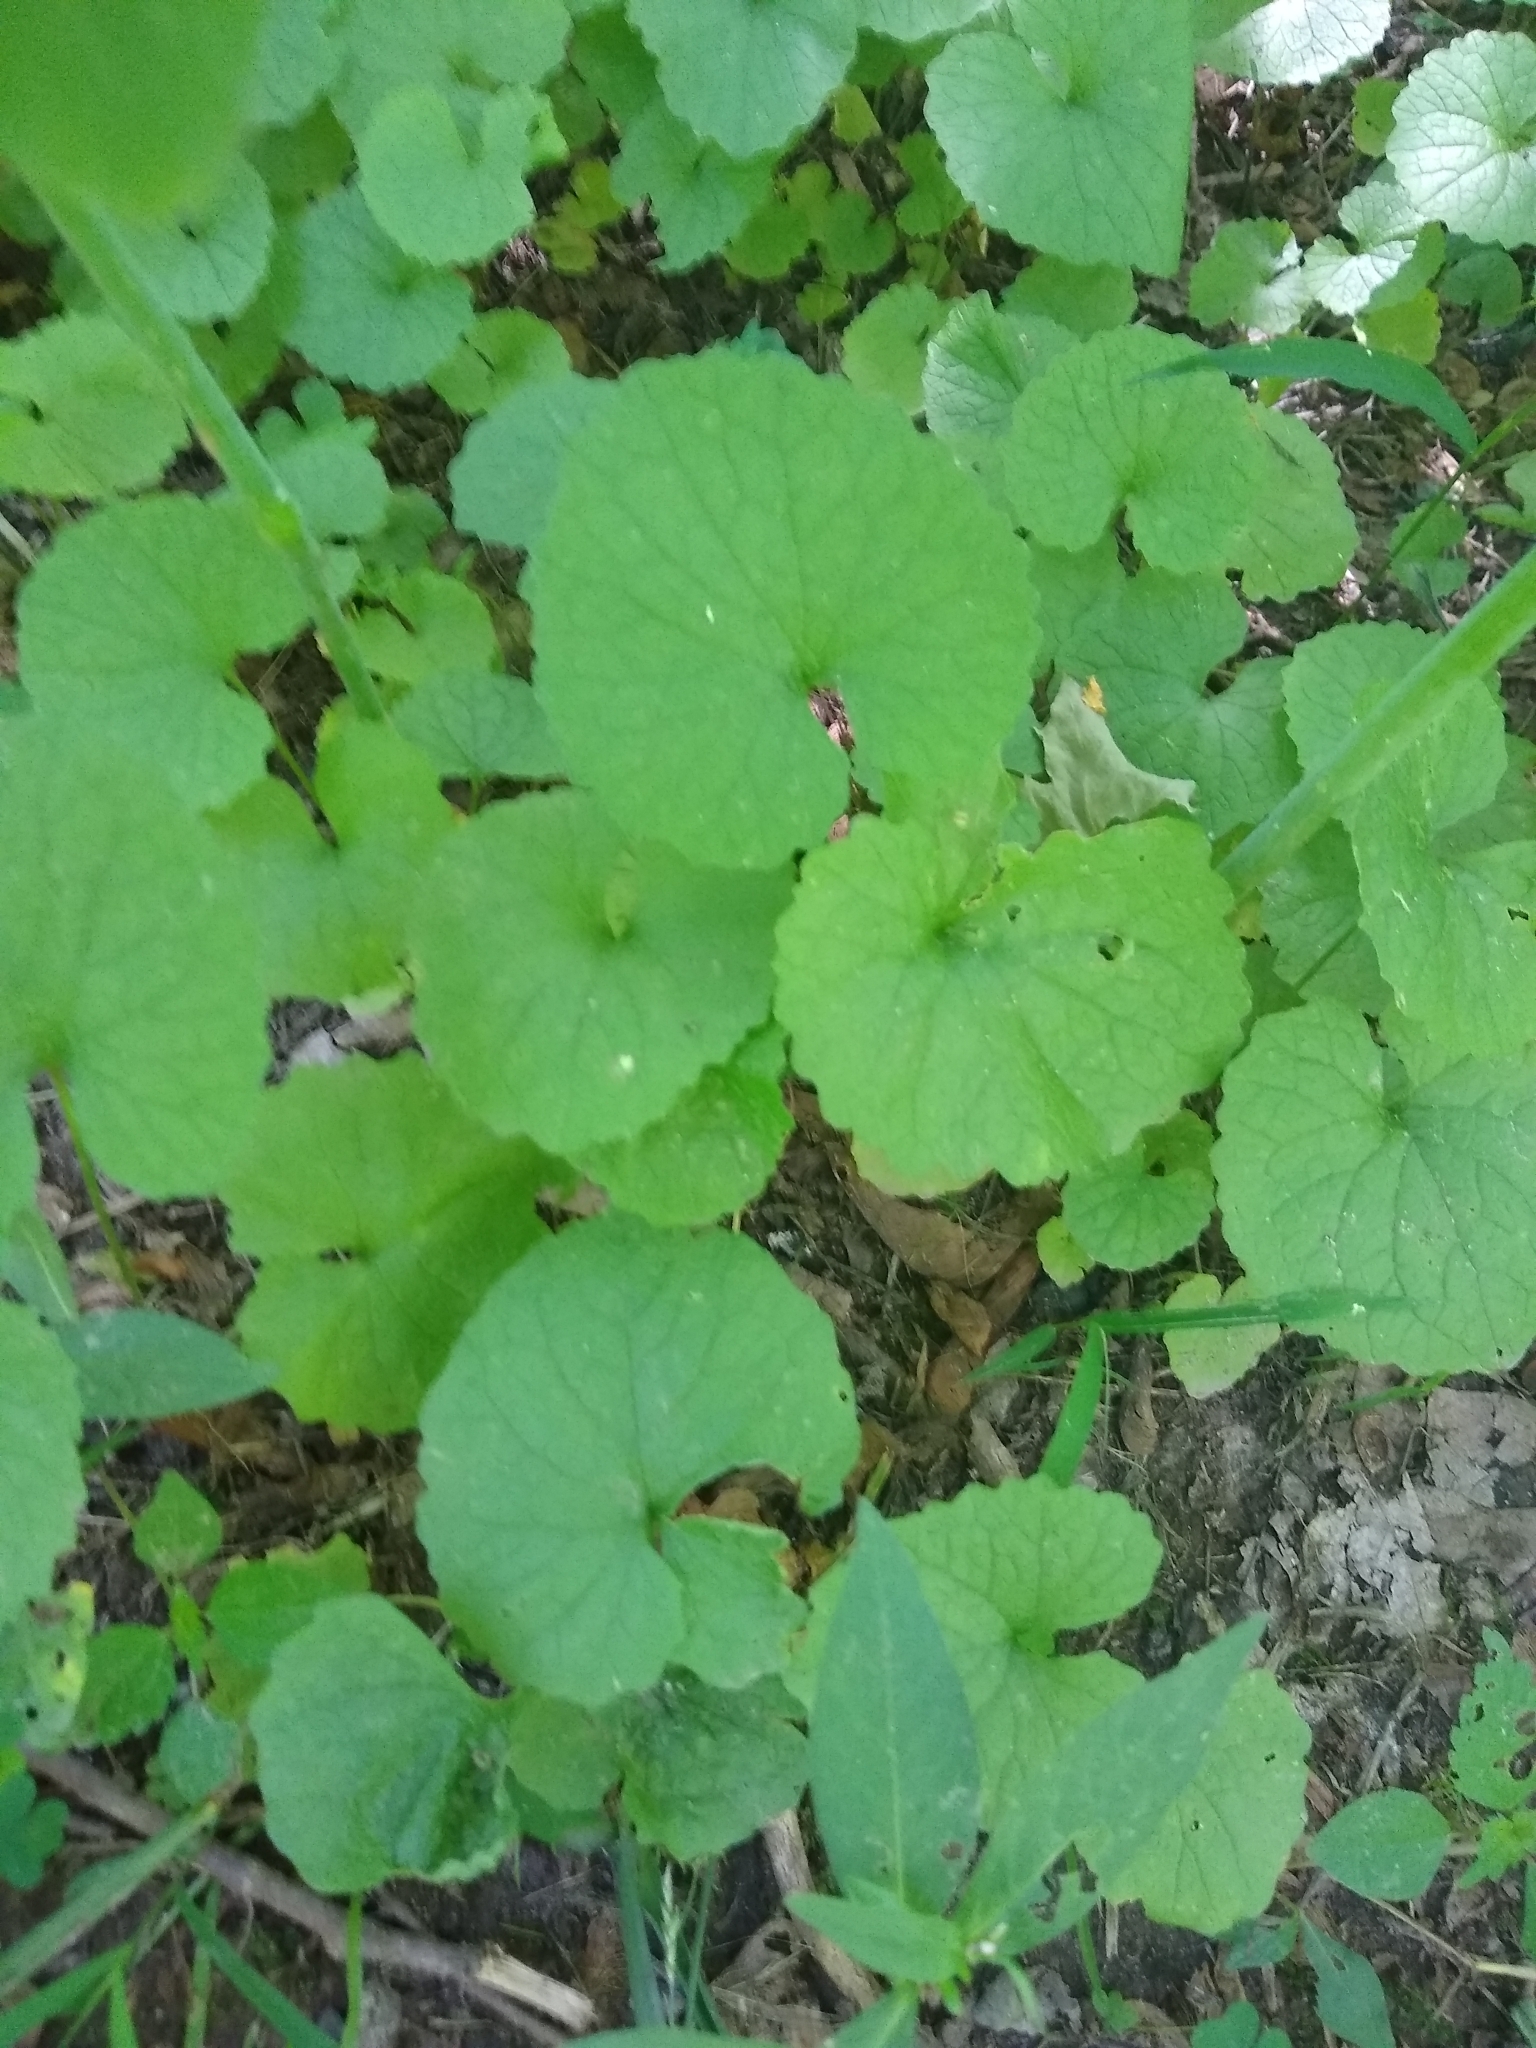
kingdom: Plantae
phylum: Tracheophyta
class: Magnoliopsida
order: Brassicales
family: Brassicaceae
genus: Alliaria
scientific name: Alliaria petiolata
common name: Garlic mustard
